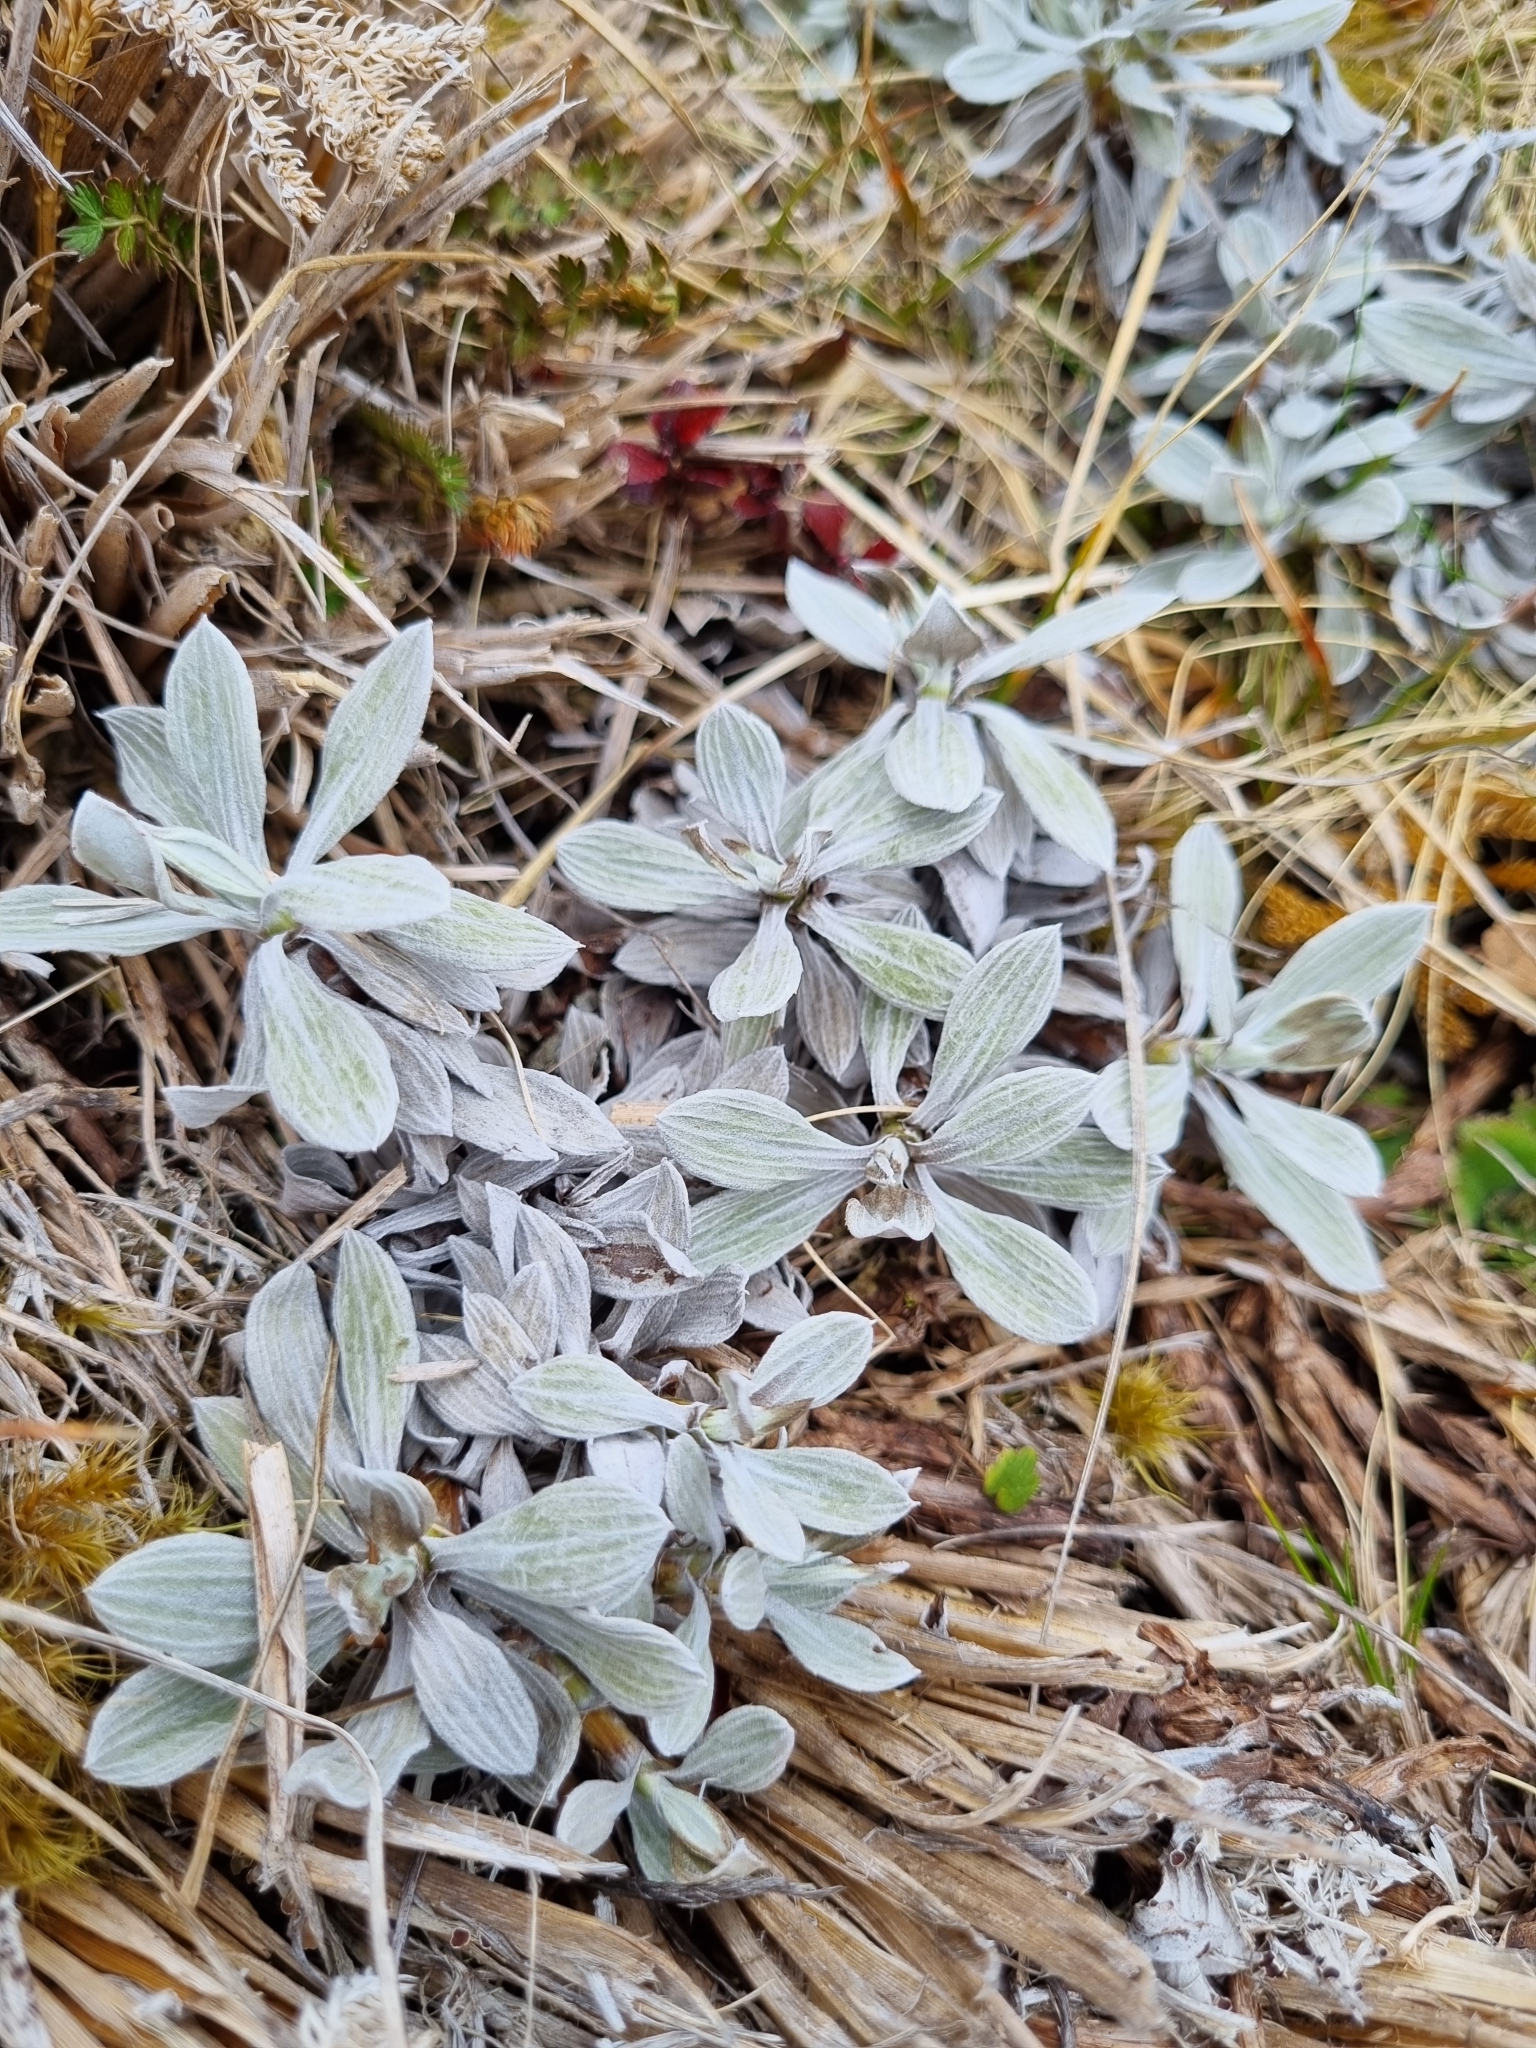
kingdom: Plantae
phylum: Tracheophyta
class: Magnoliopsida
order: Asterales
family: Asteraceae
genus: Celmisia
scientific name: Celmisia discolor
